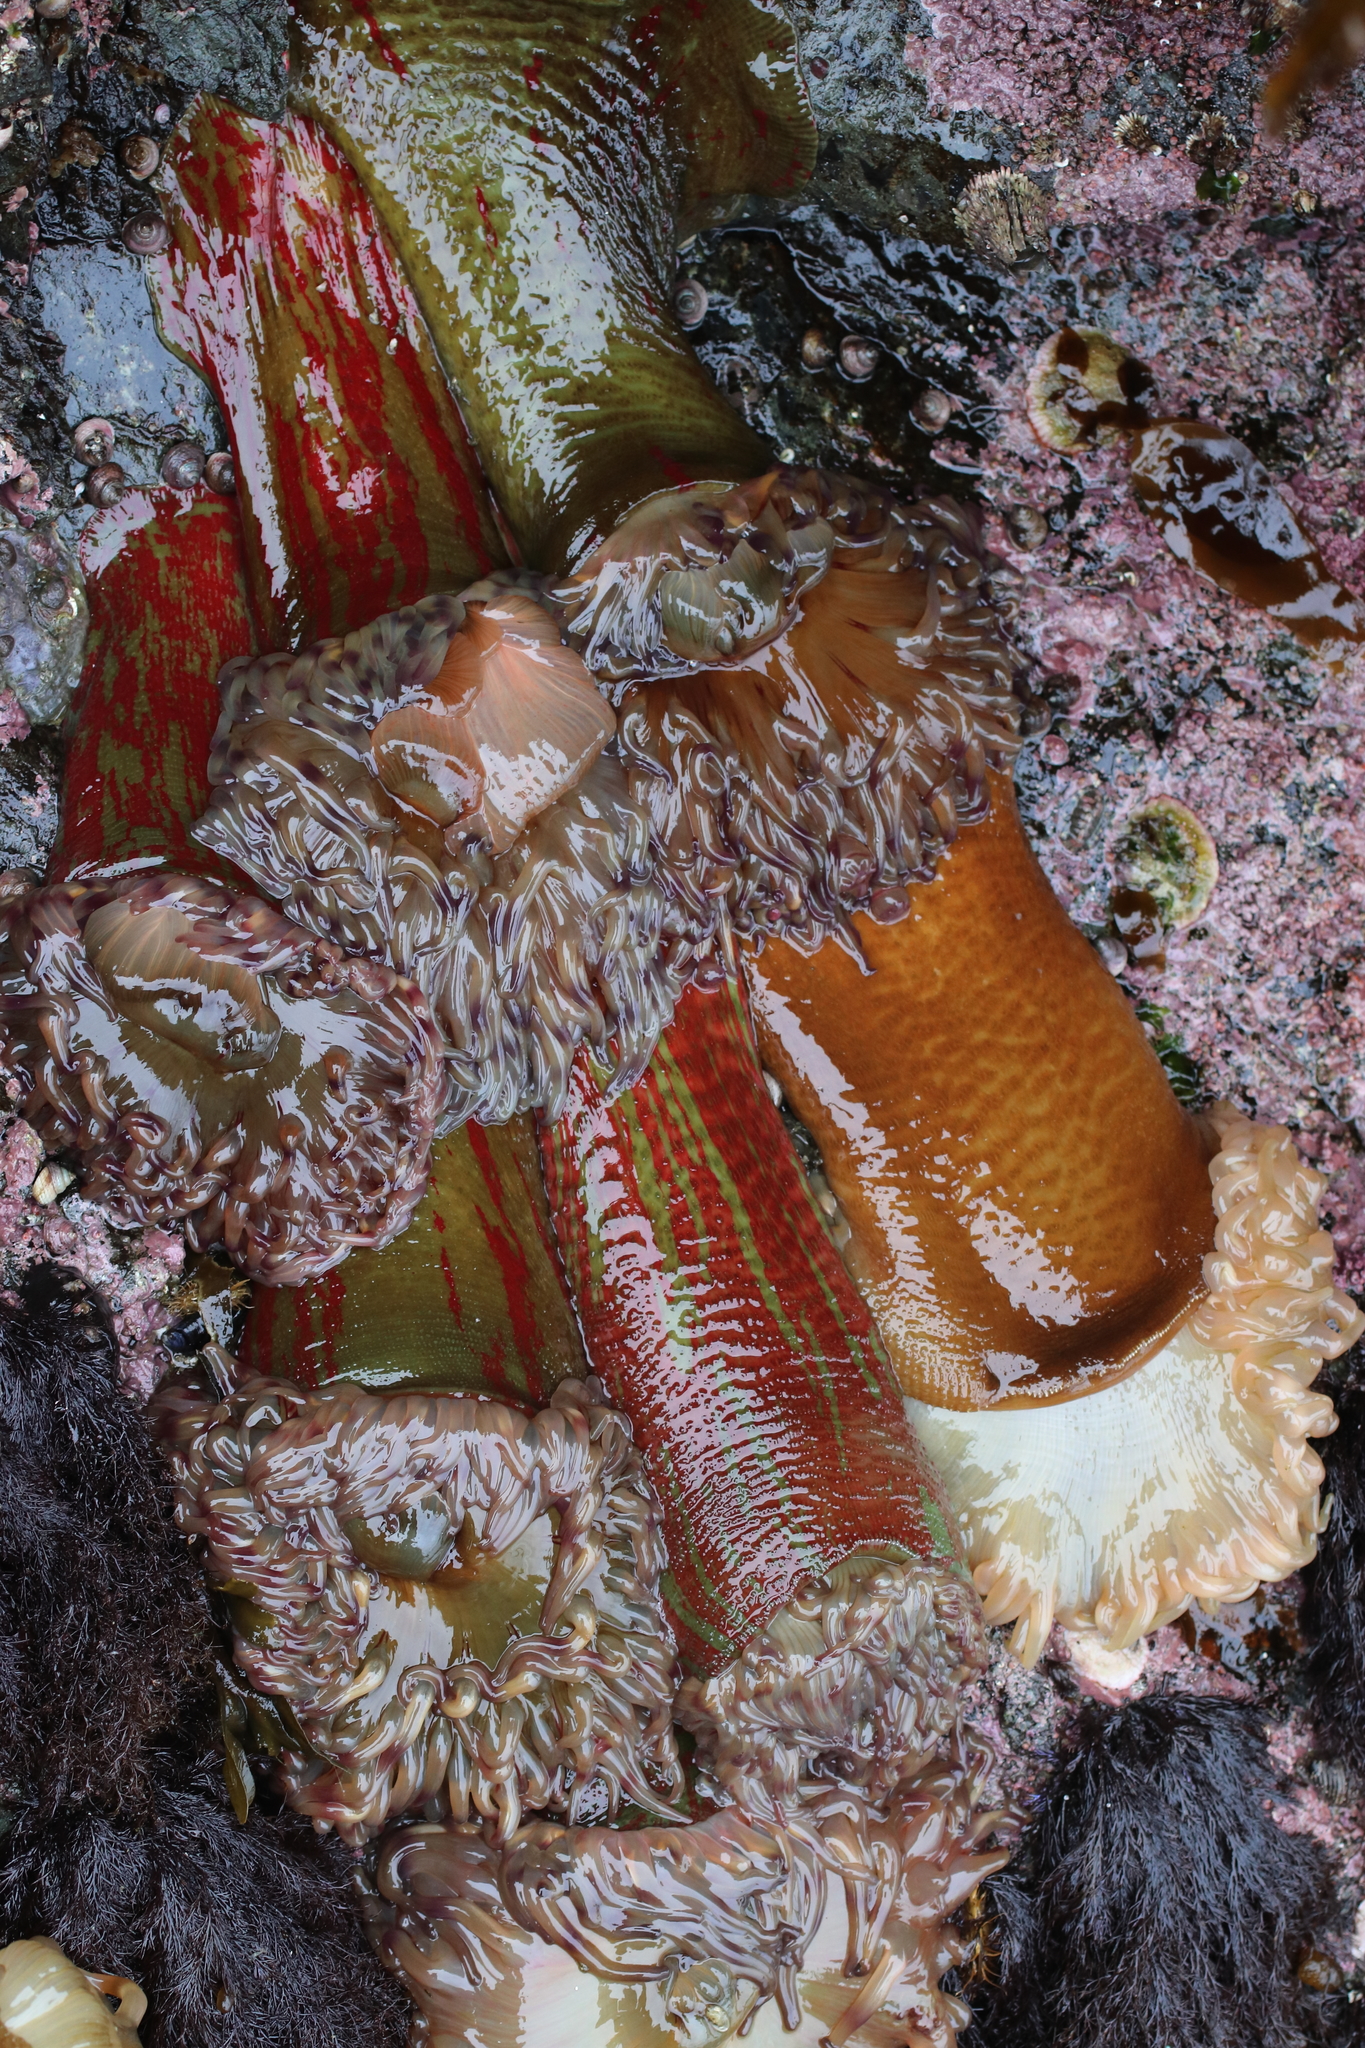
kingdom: Animalia
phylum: Cnidaria
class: Anthozoa
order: Actiniaria
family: Actiniidae
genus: Urticina
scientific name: Urticina grebelnyi
